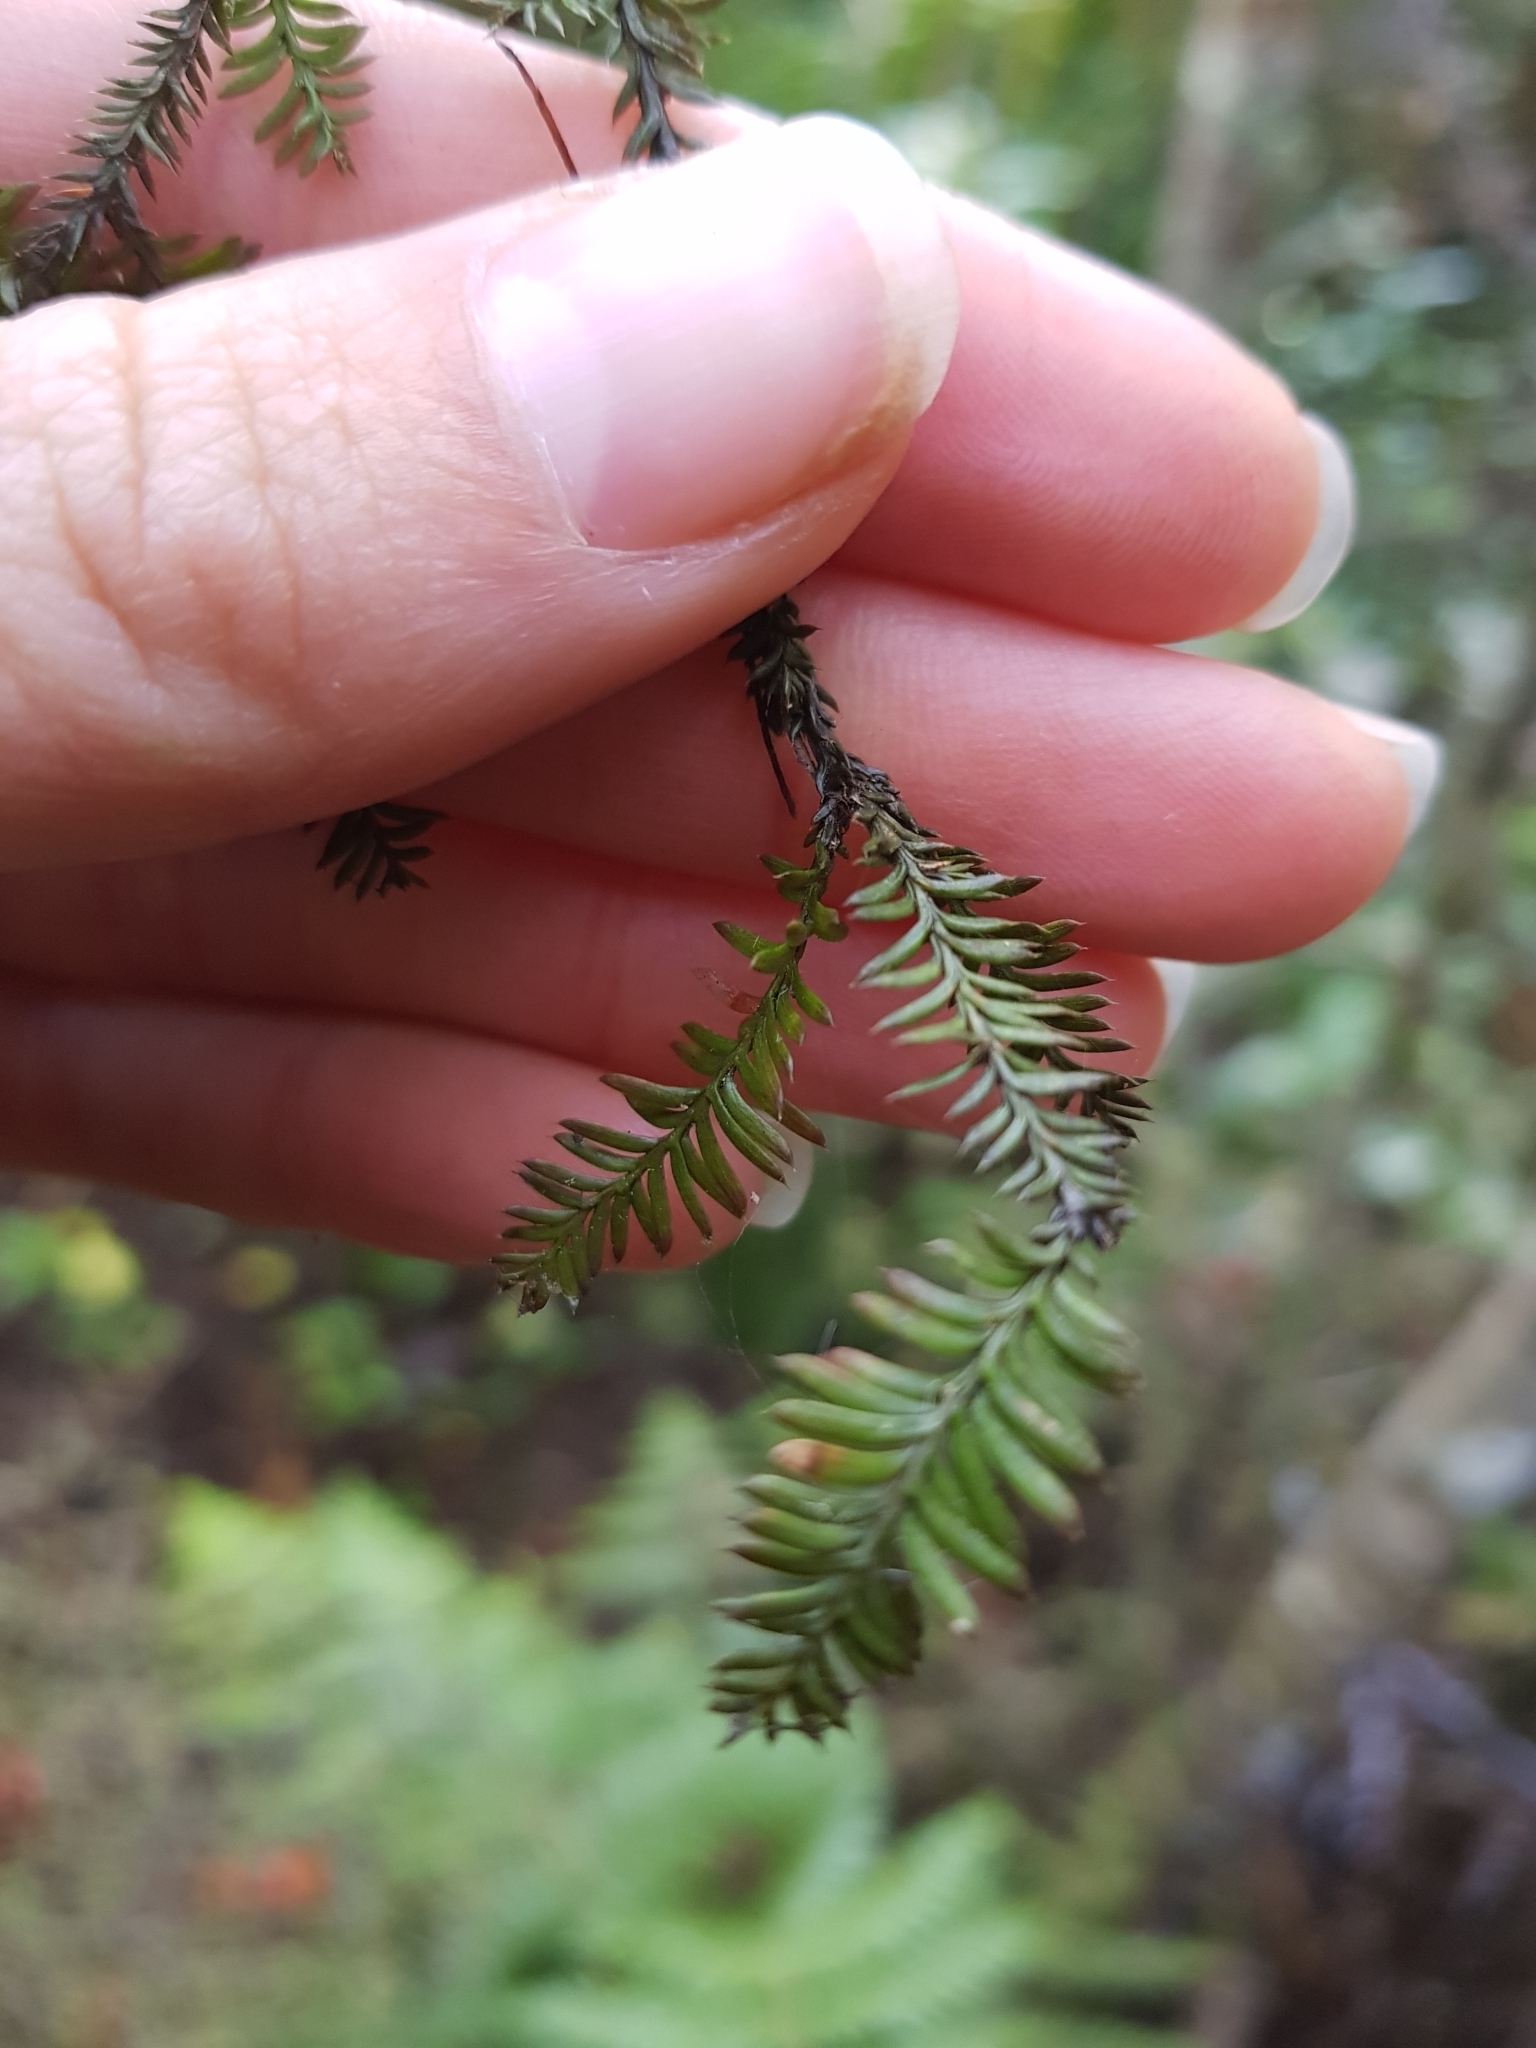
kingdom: Plantae
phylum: Tracheophyta
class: Pinopsida
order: Pinales
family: Podocarpaceae
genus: Dacrycarpus
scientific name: Dacrycarpus dacrydioides
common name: White pine
